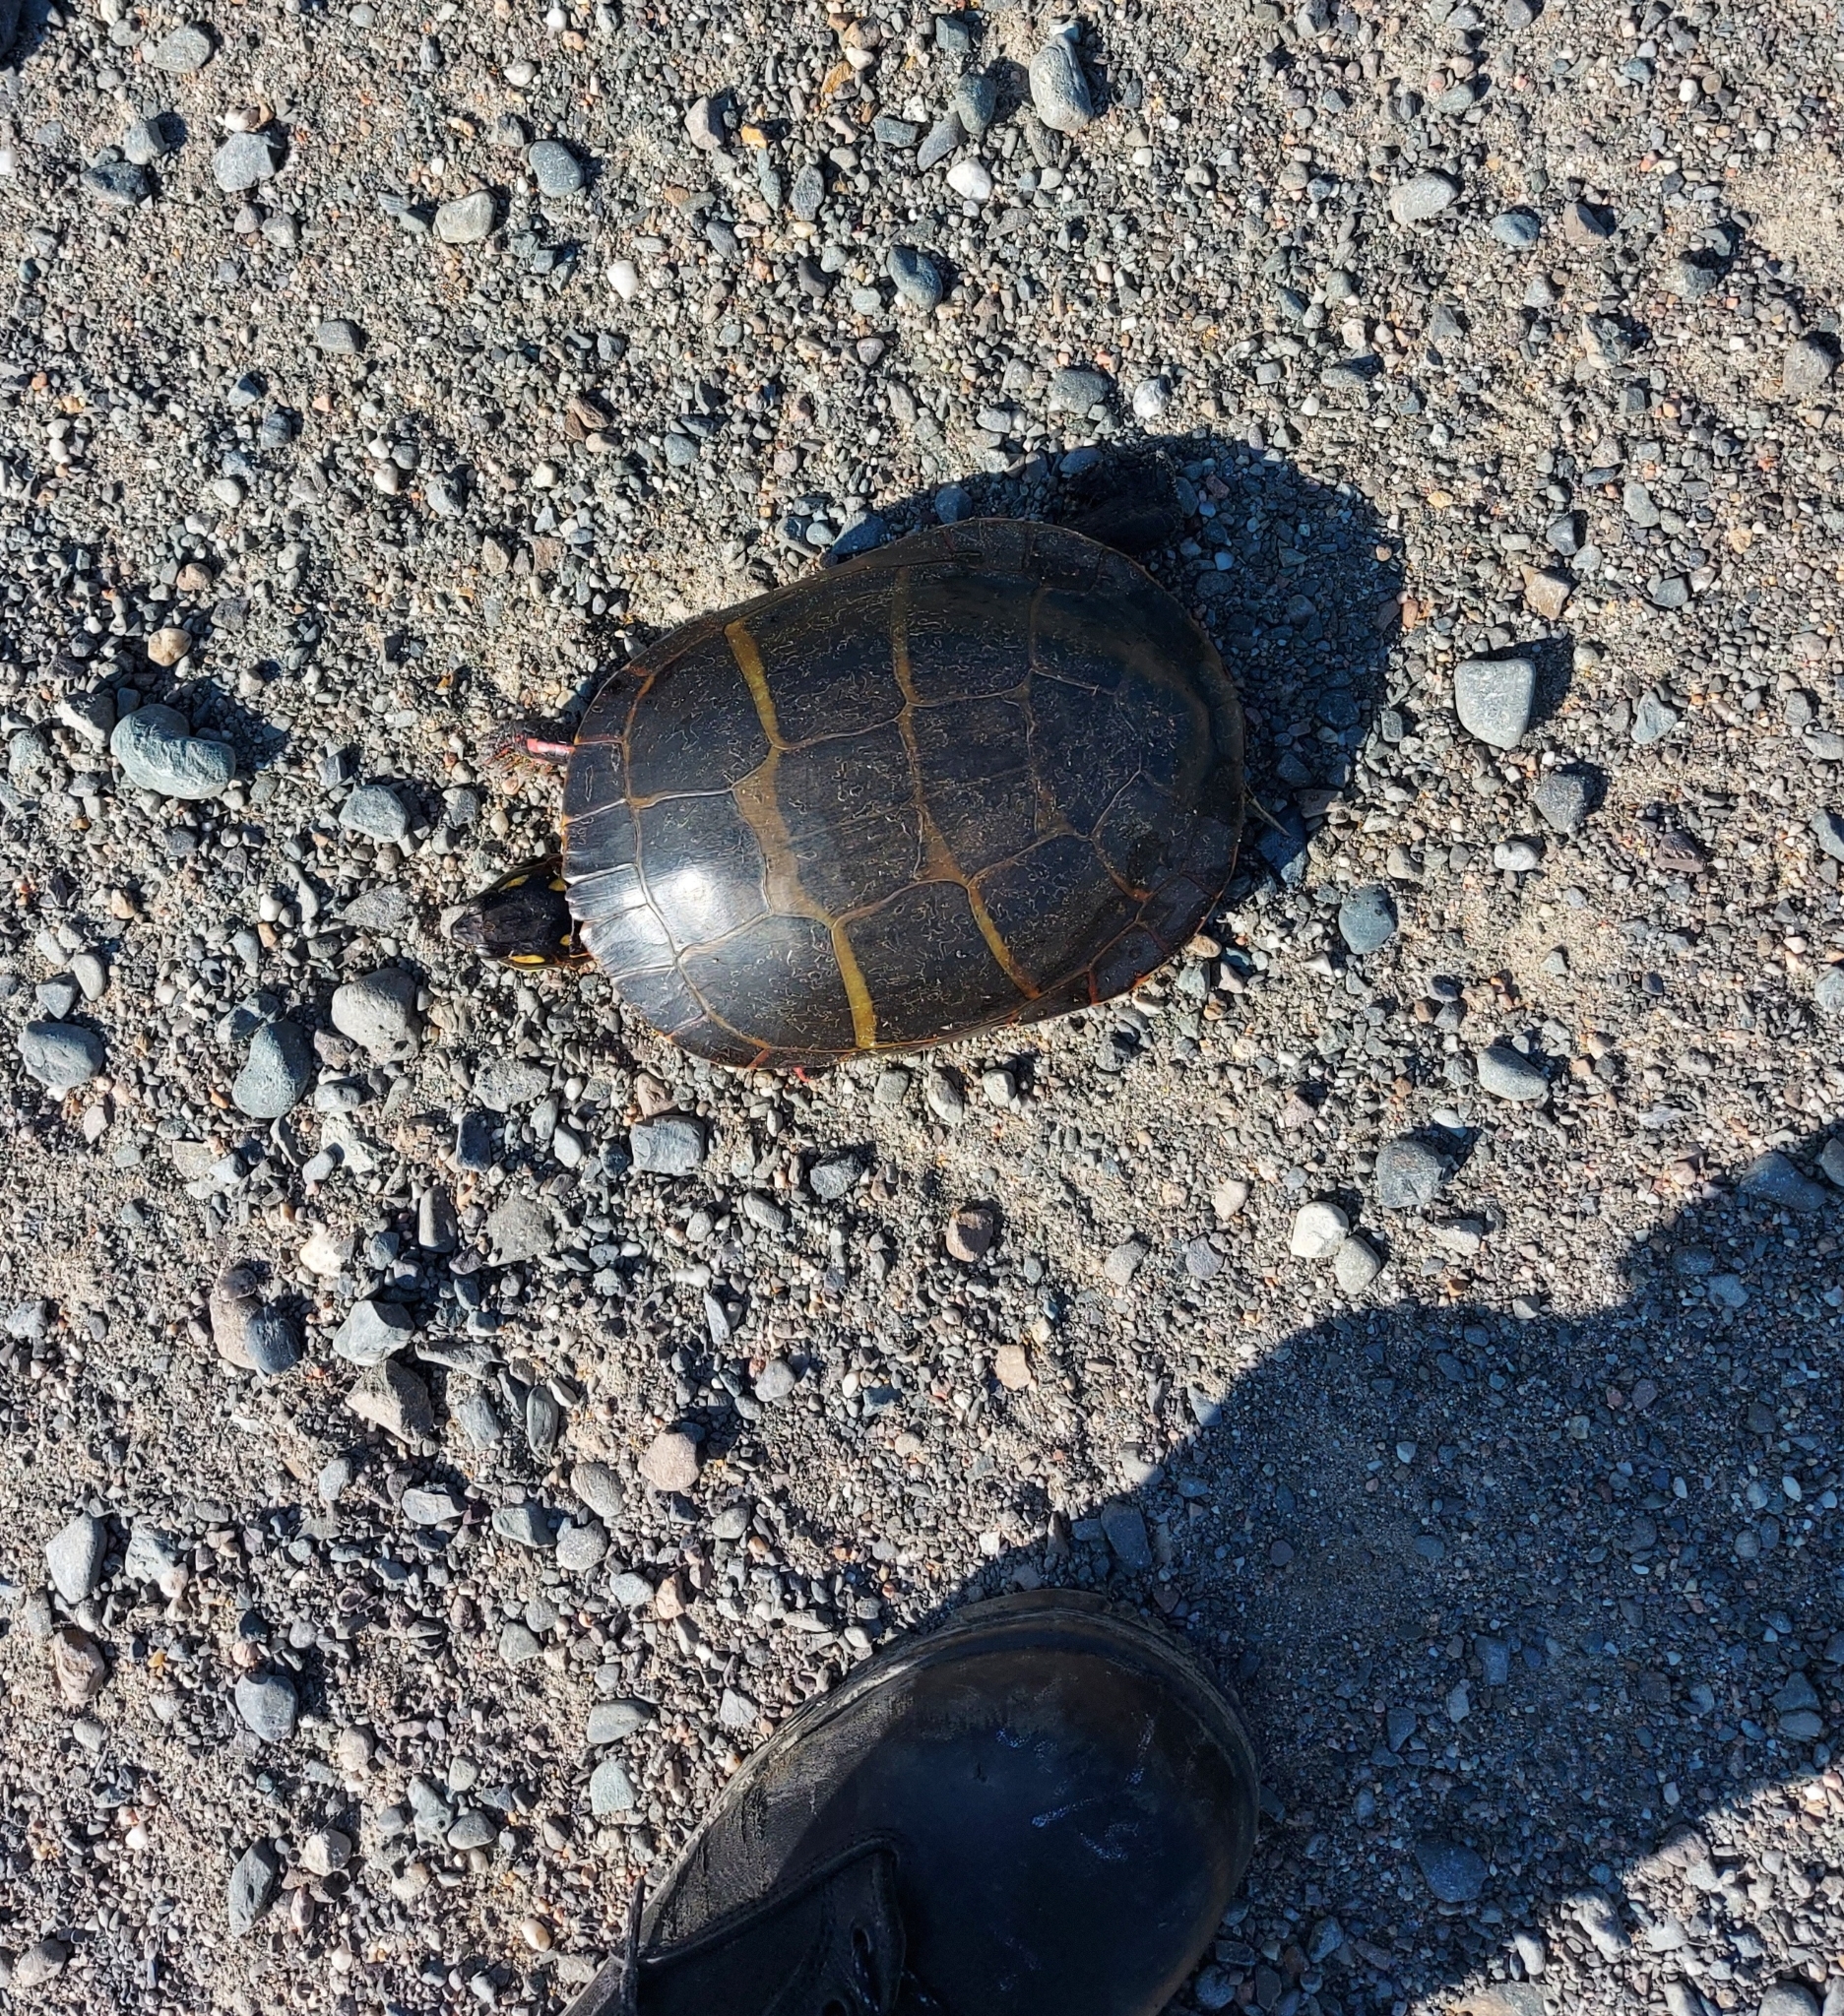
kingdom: Animalia
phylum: Chordata
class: Testudines
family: Emydidae
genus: Chrysemys
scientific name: Chrysemys picta
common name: Painted turtle
